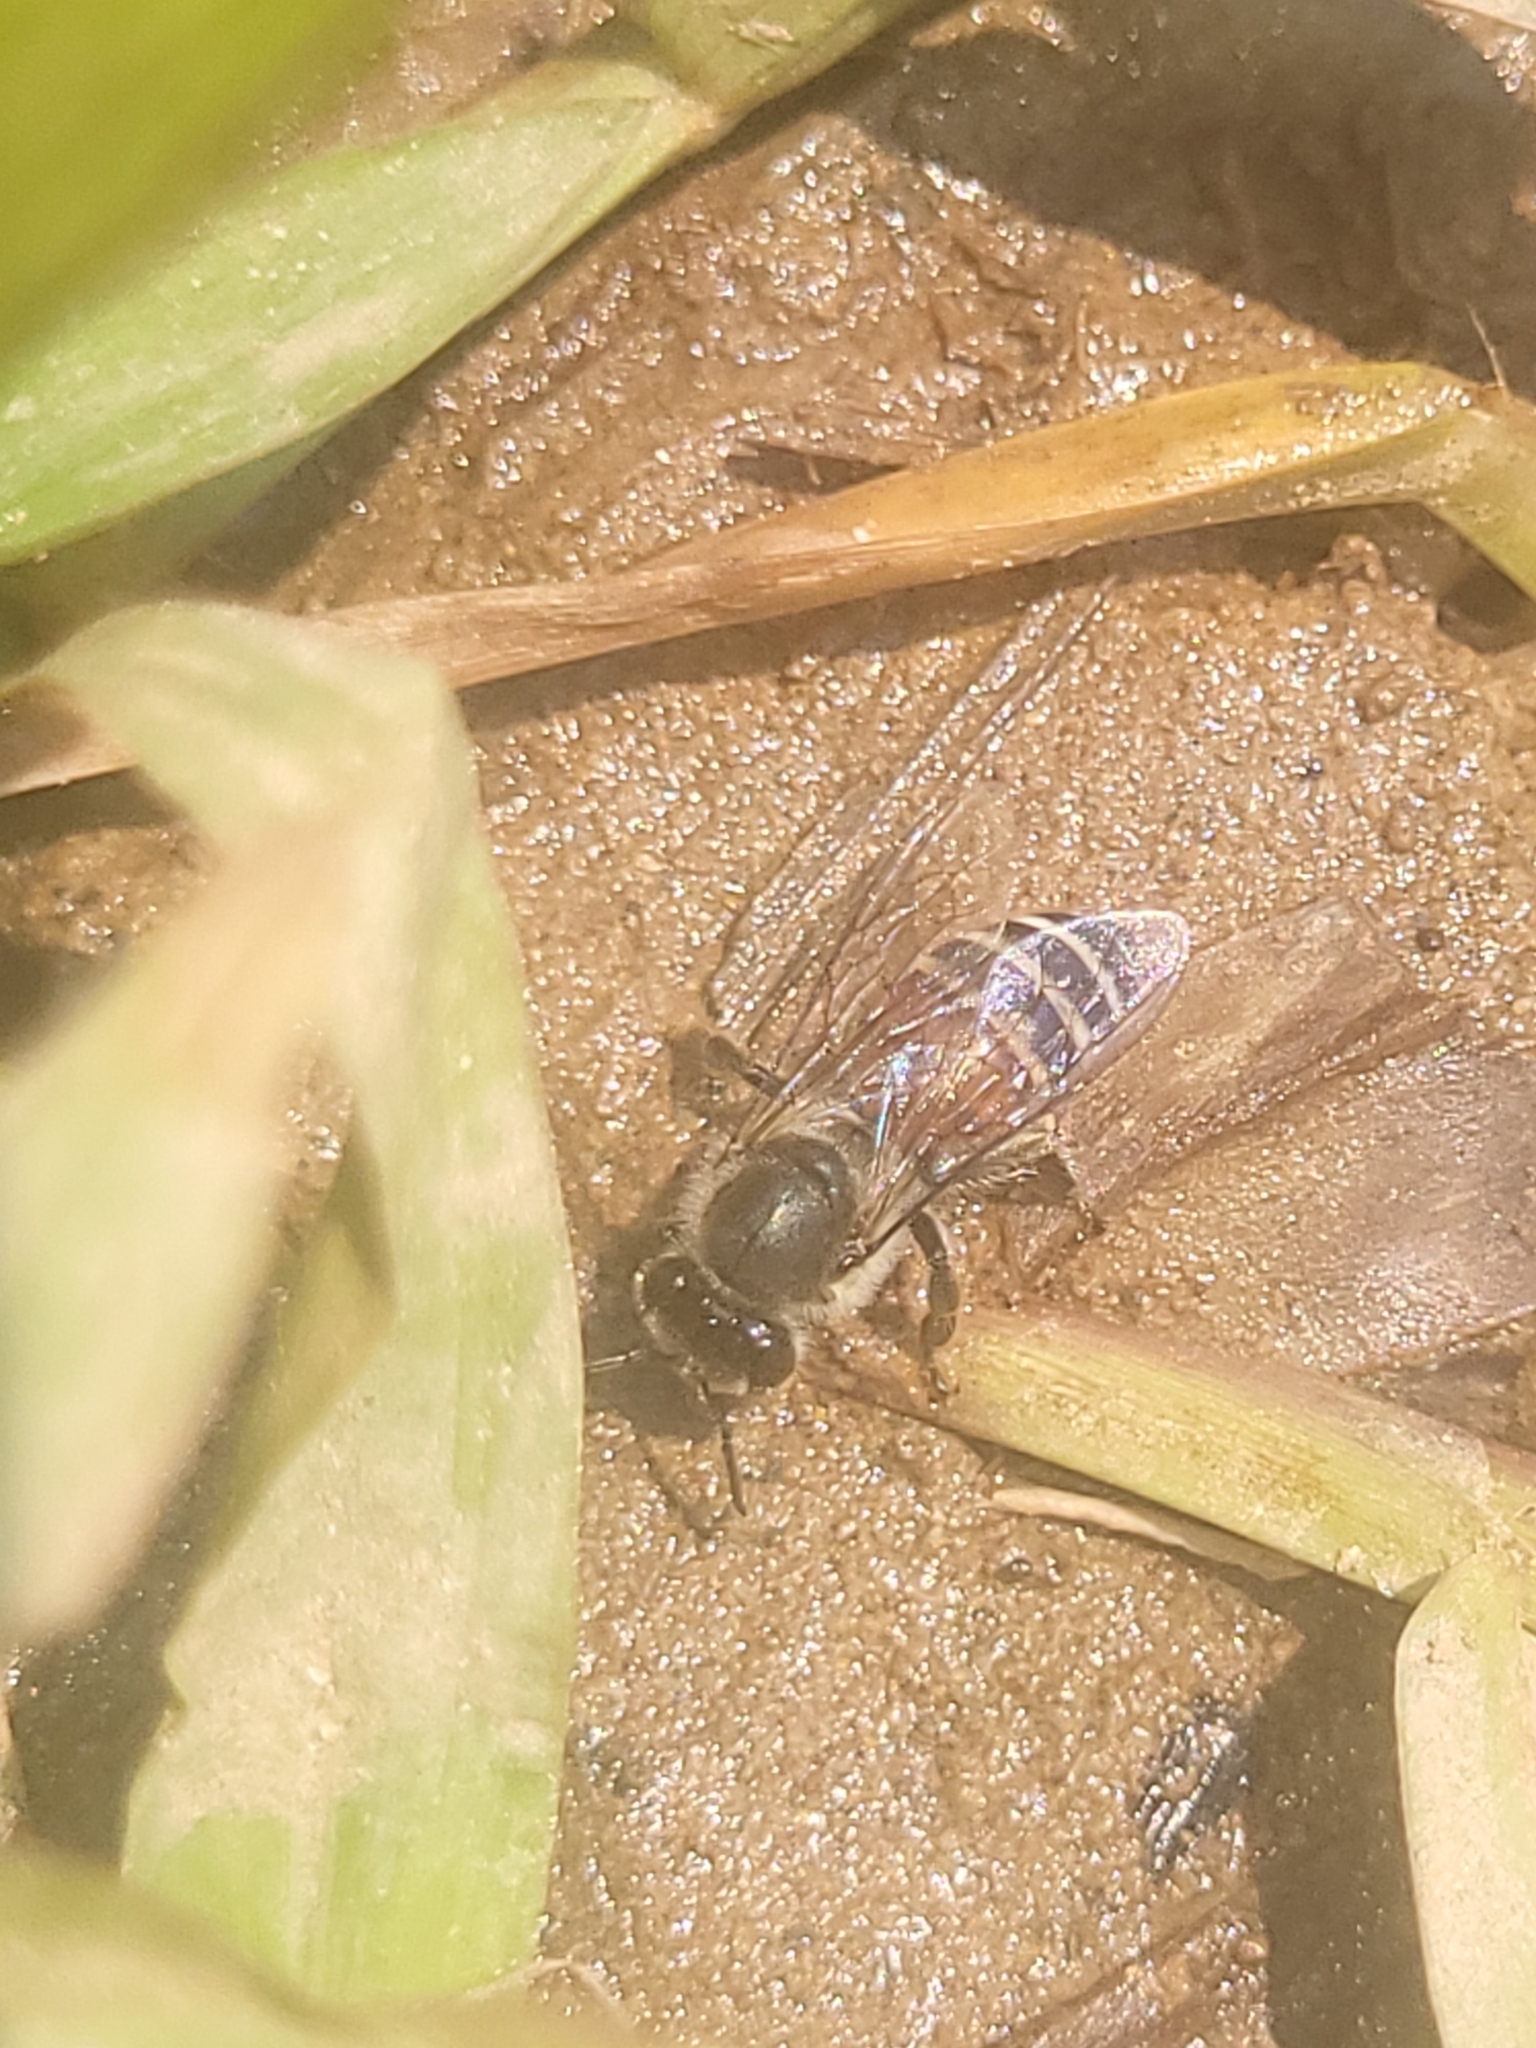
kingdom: Animalia
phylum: Arthropoda
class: Insecta
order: Hymenoptera
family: Apidae
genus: Apis
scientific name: Apis florea
